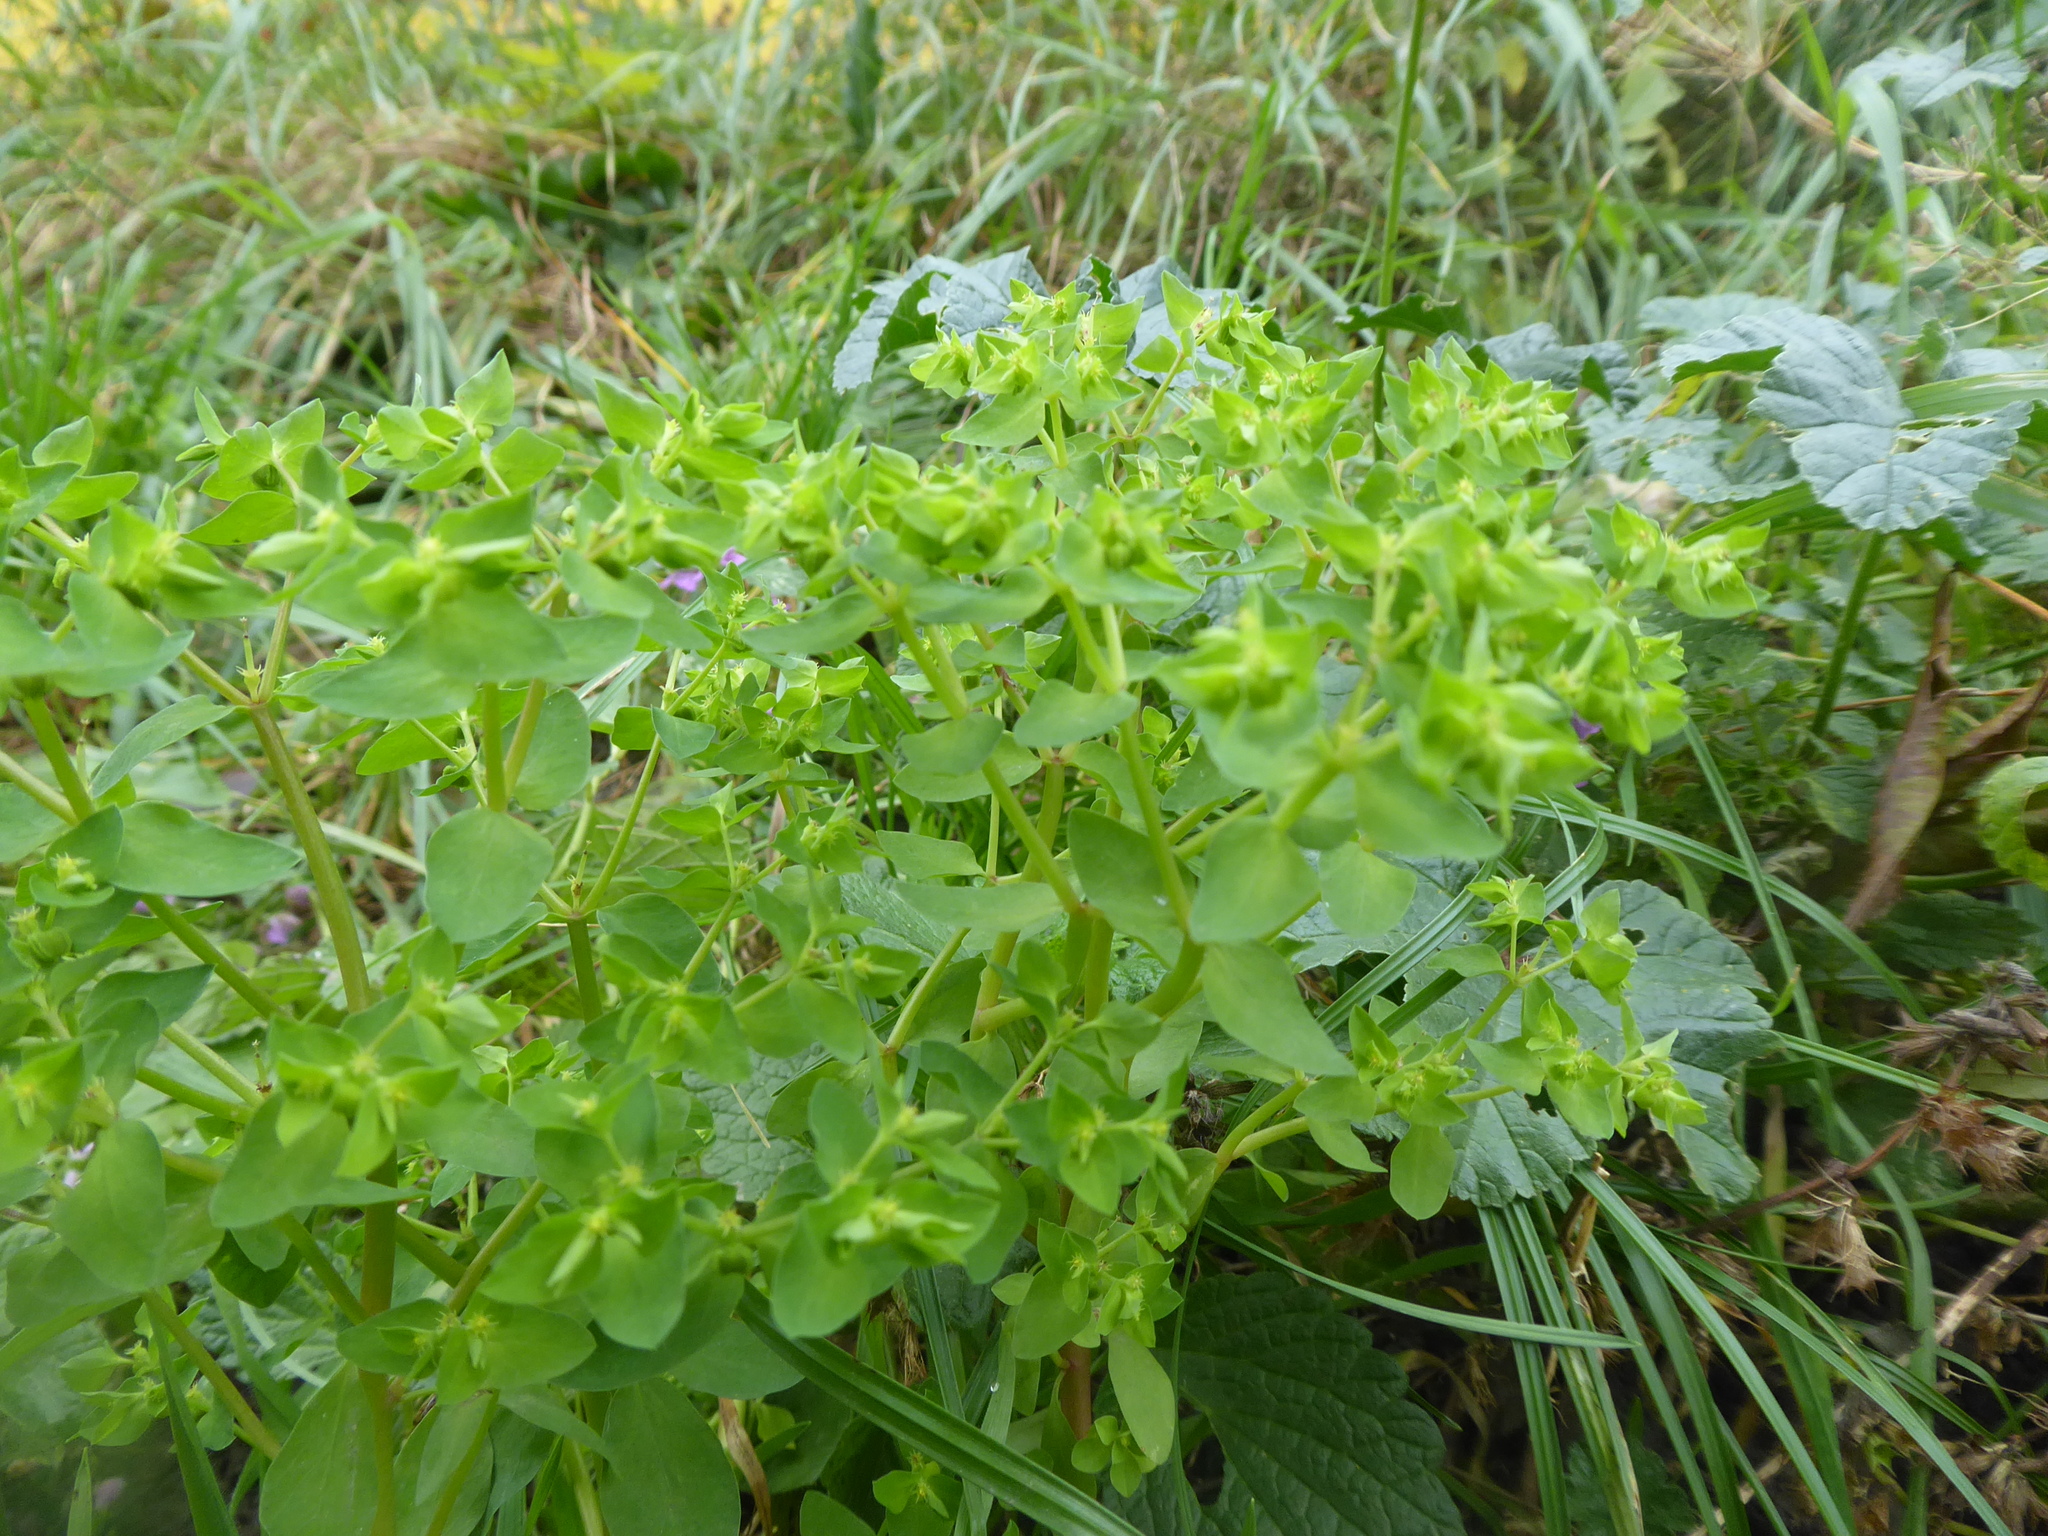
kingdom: Plantae
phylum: Tracheophyta
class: Magnoliopsida
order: Malpighiales
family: Euphorbiaceae
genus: Euphorbia
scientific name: Euphorbia peplus
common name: Petty spurge
